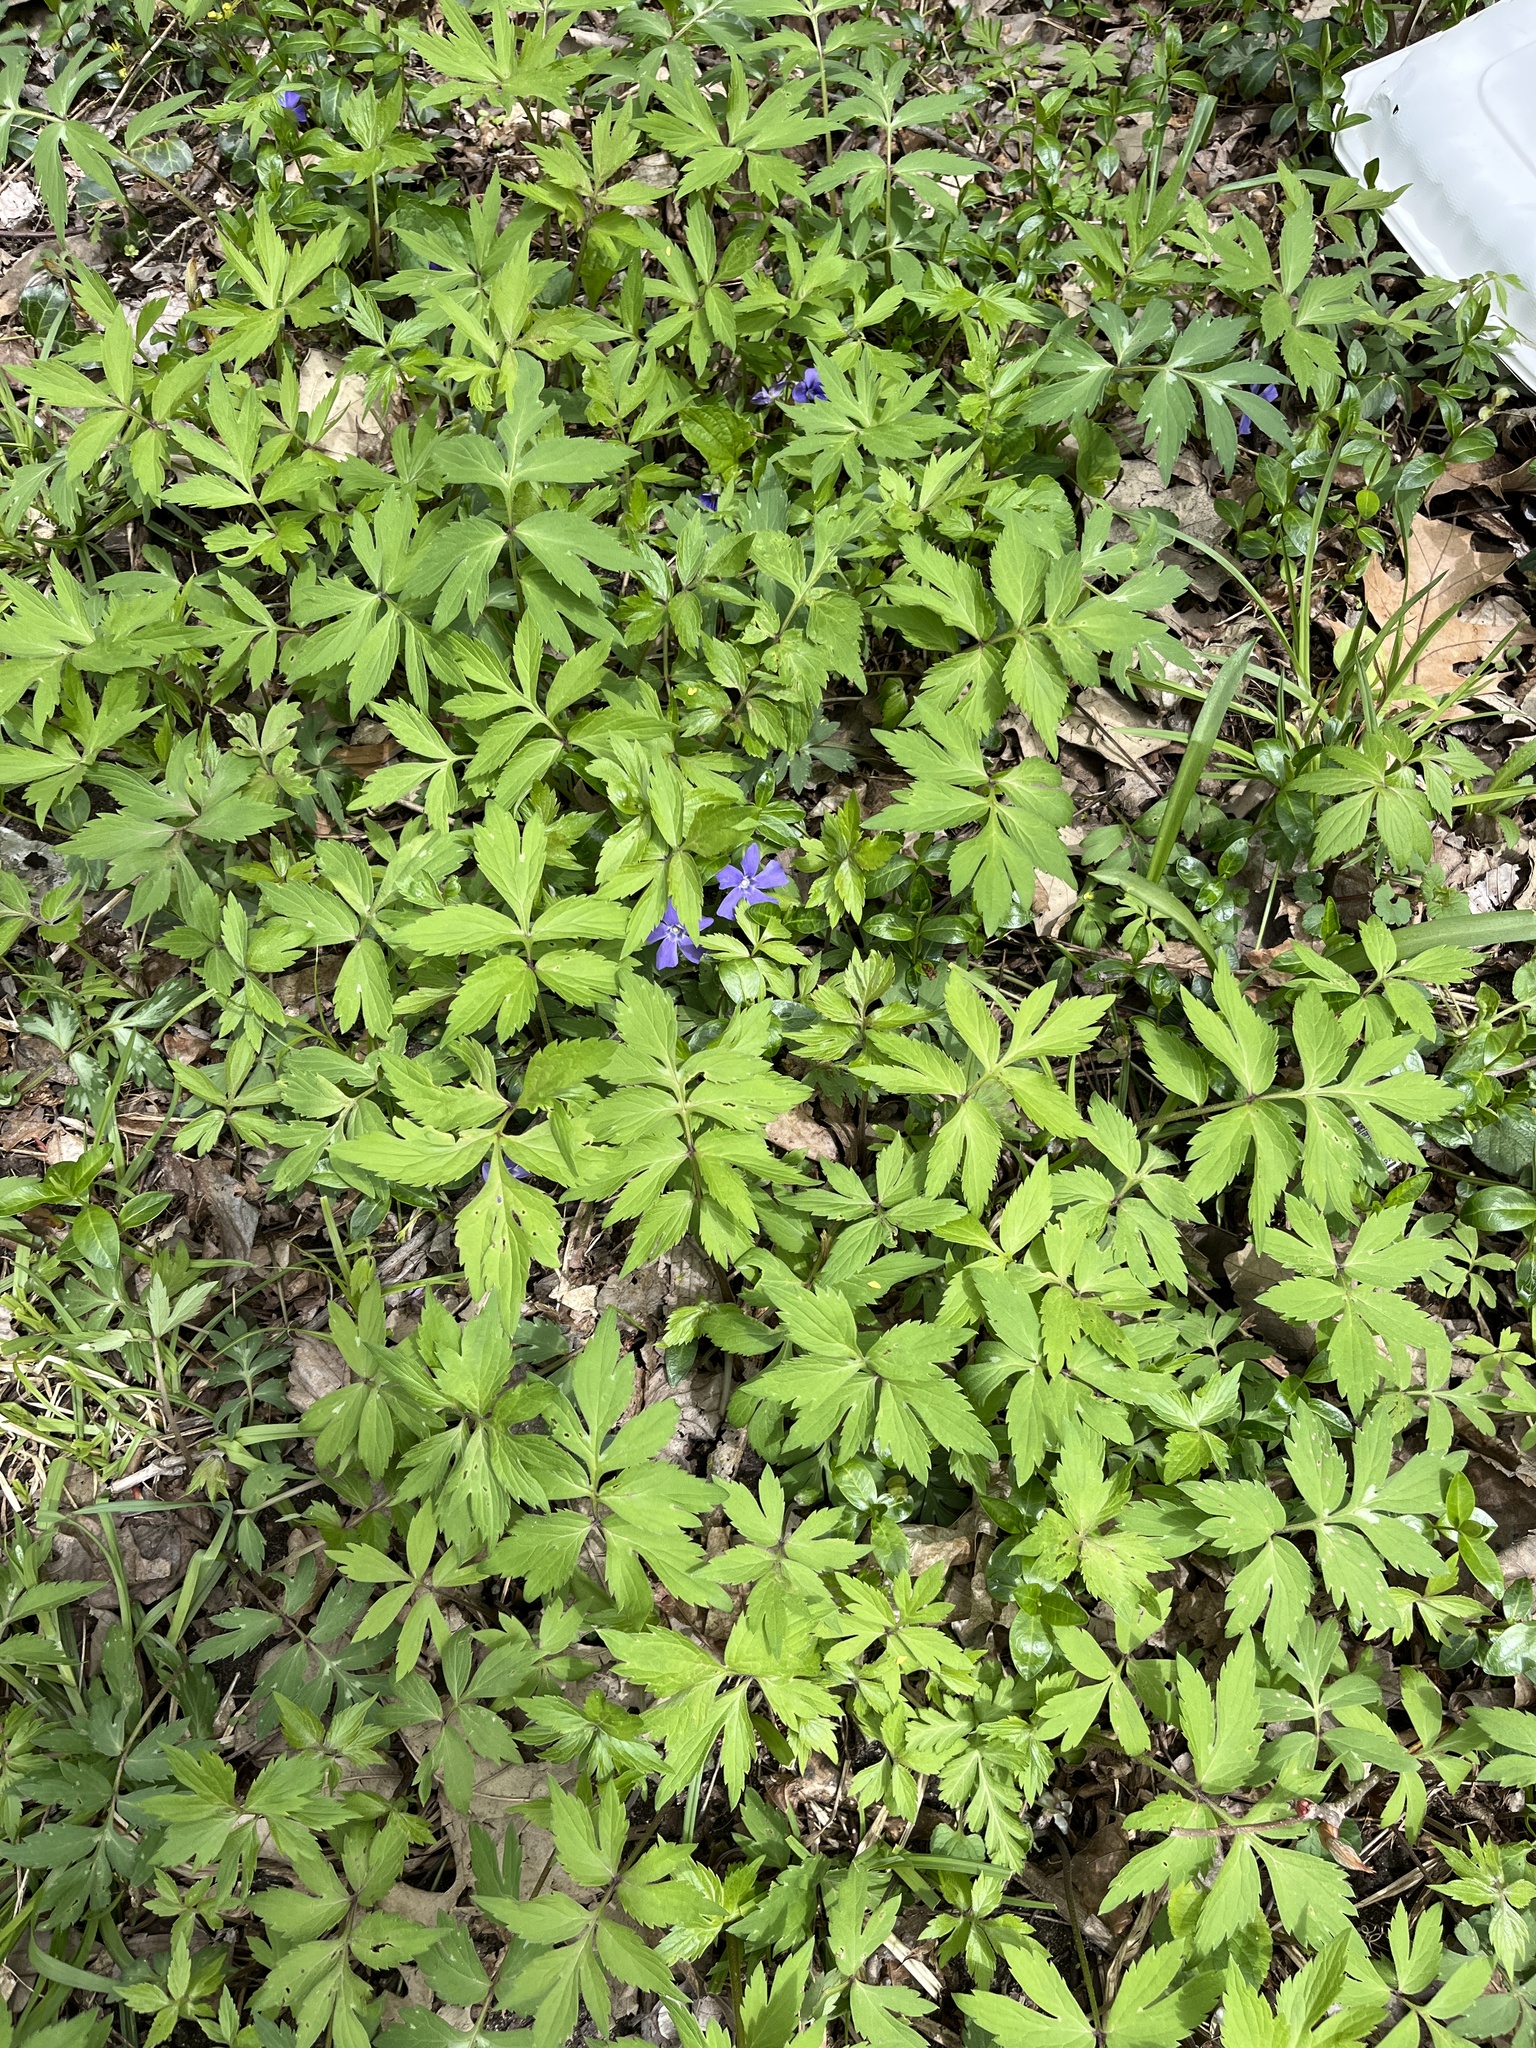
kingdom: Plantae
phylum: Tracheophyta
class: Magnoliopsida
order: Boraginales
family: Hydrophyllaceae
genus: Hydrophyllum
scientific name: Hydrophyllum virginianum
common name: Virginia waterleaf
